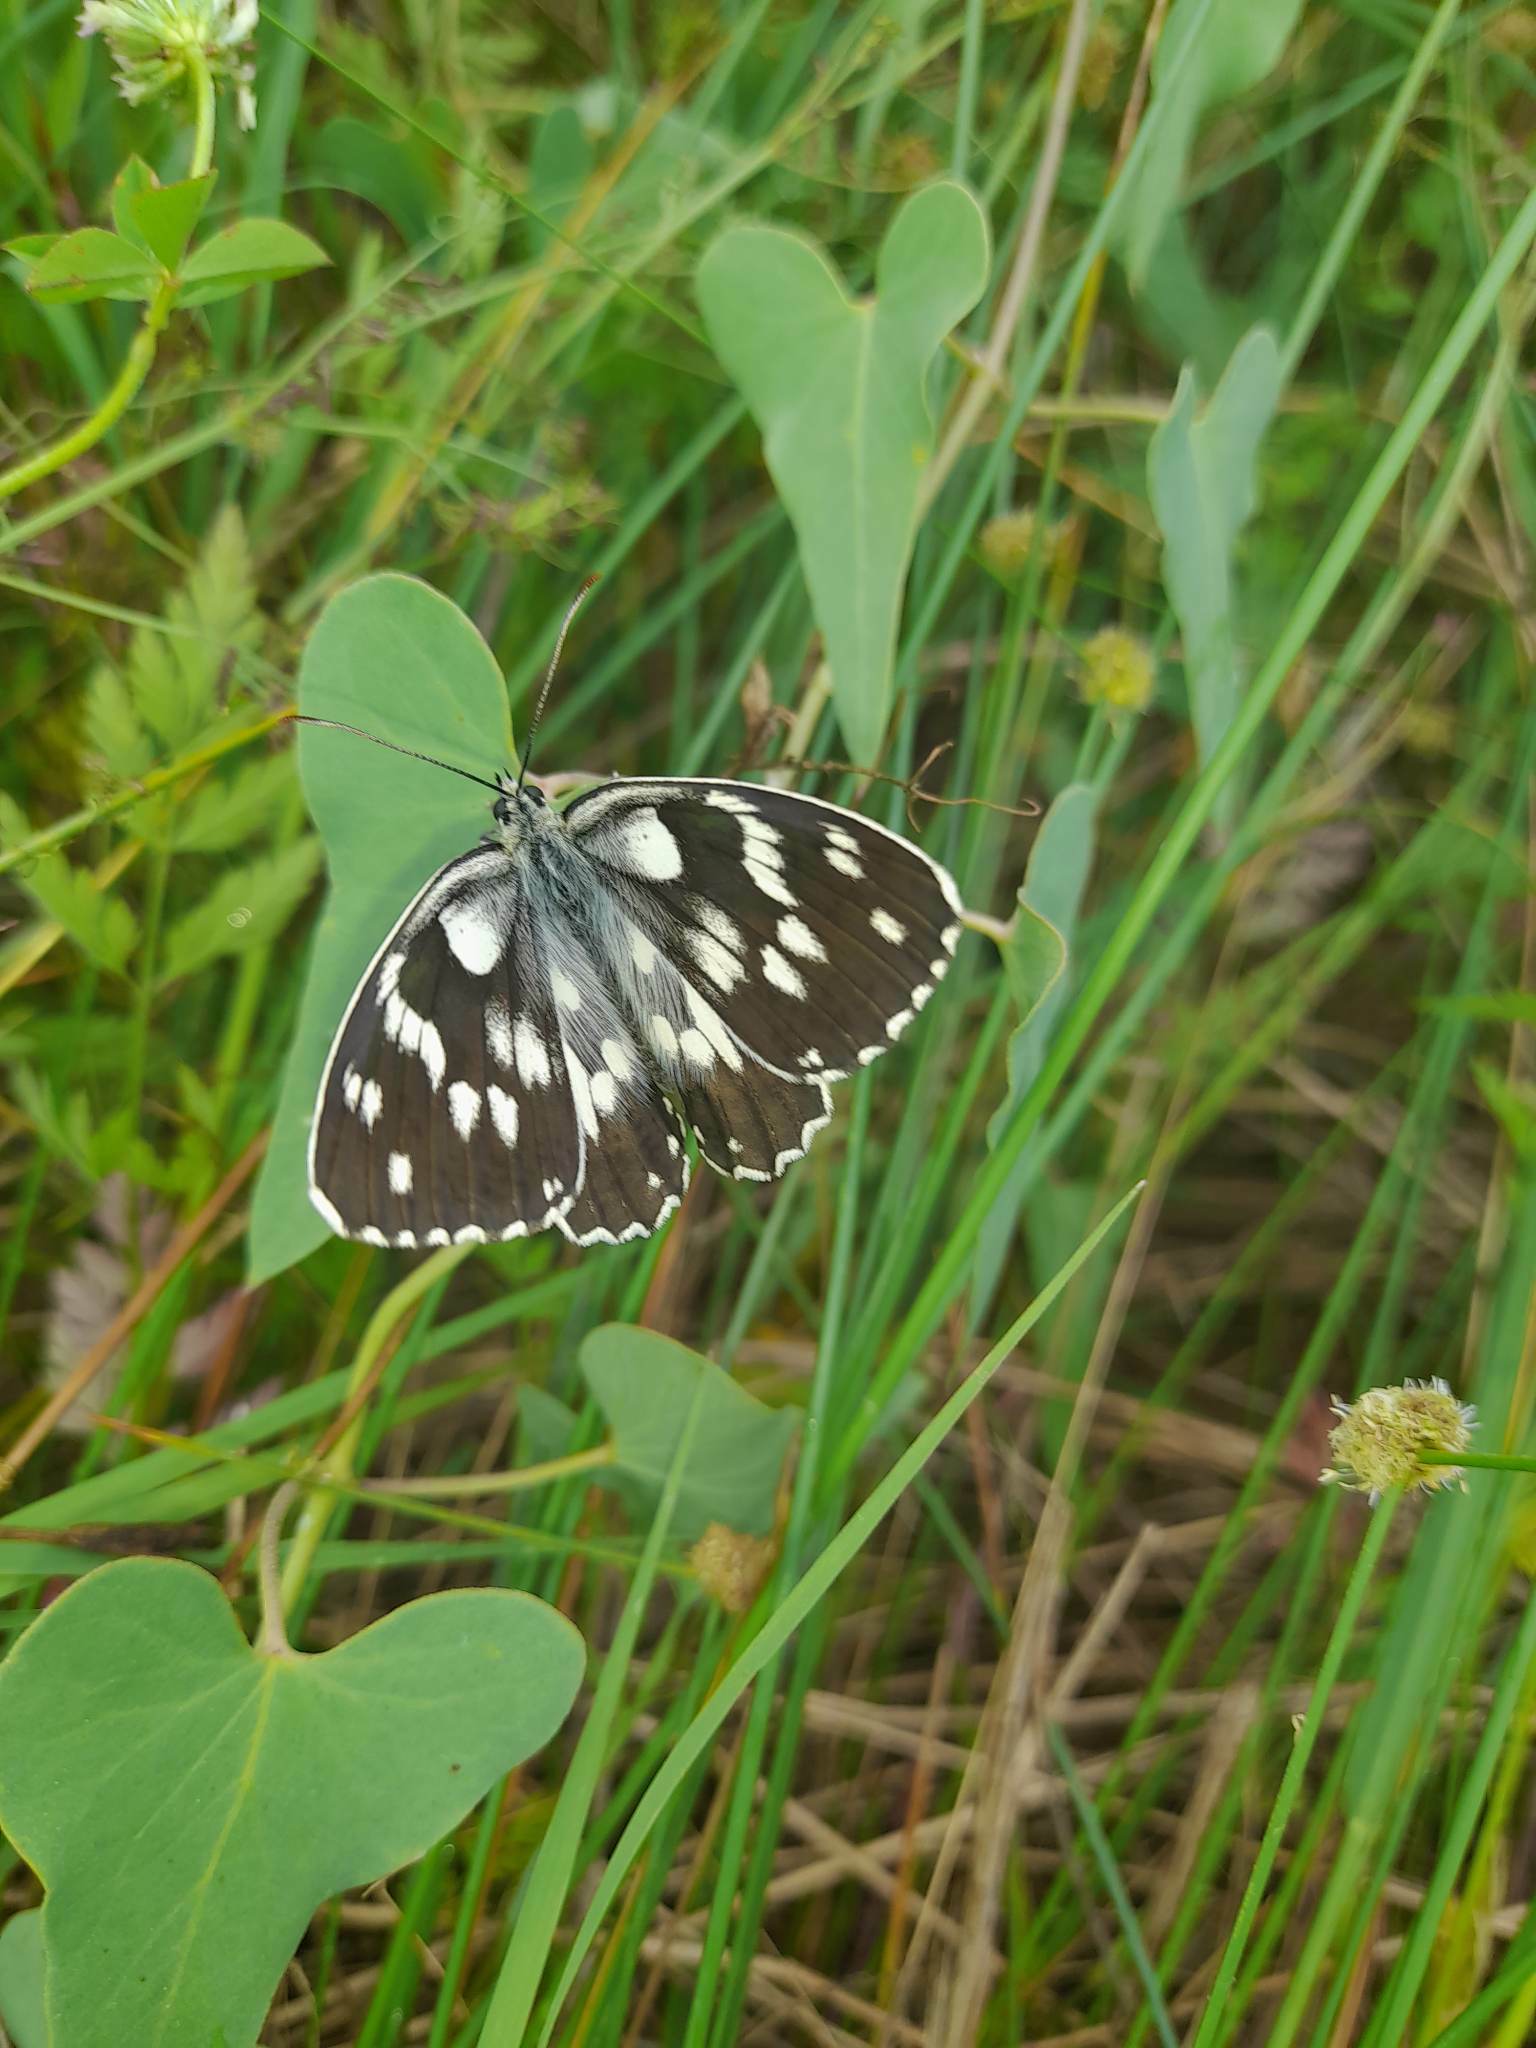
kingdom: Animalia
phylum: Arthropoda
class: Insecta
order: Lepidoptera
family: Nymphalidae
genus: Melanargia
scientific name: Melanargia galathea
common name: Marbled white
